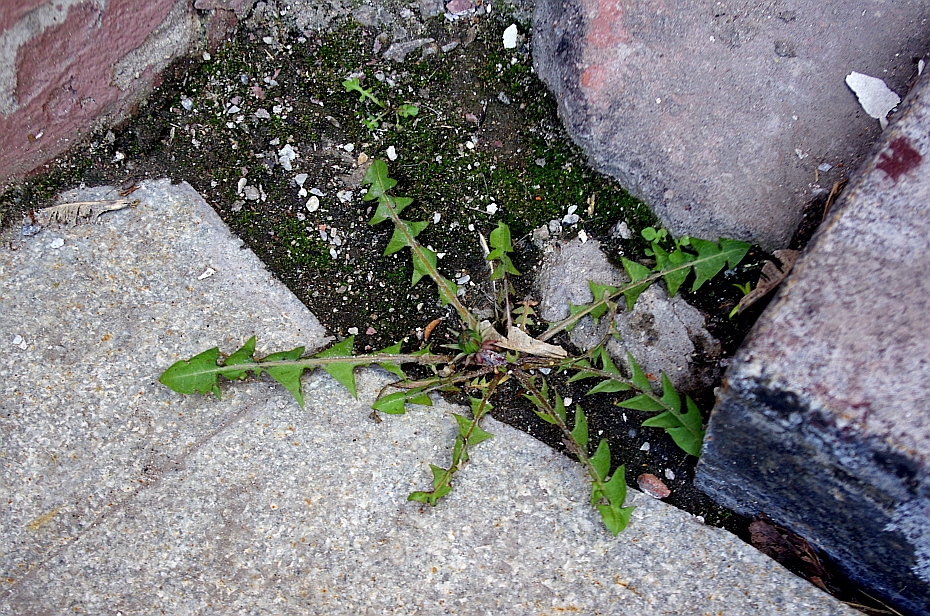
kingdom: Plantae
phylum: Tracheophyta
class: Magnoliopsida
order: Asterales
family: Asteraceae
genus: Taraxacum
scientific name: Taraxacum officinale
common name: Common dandelion
